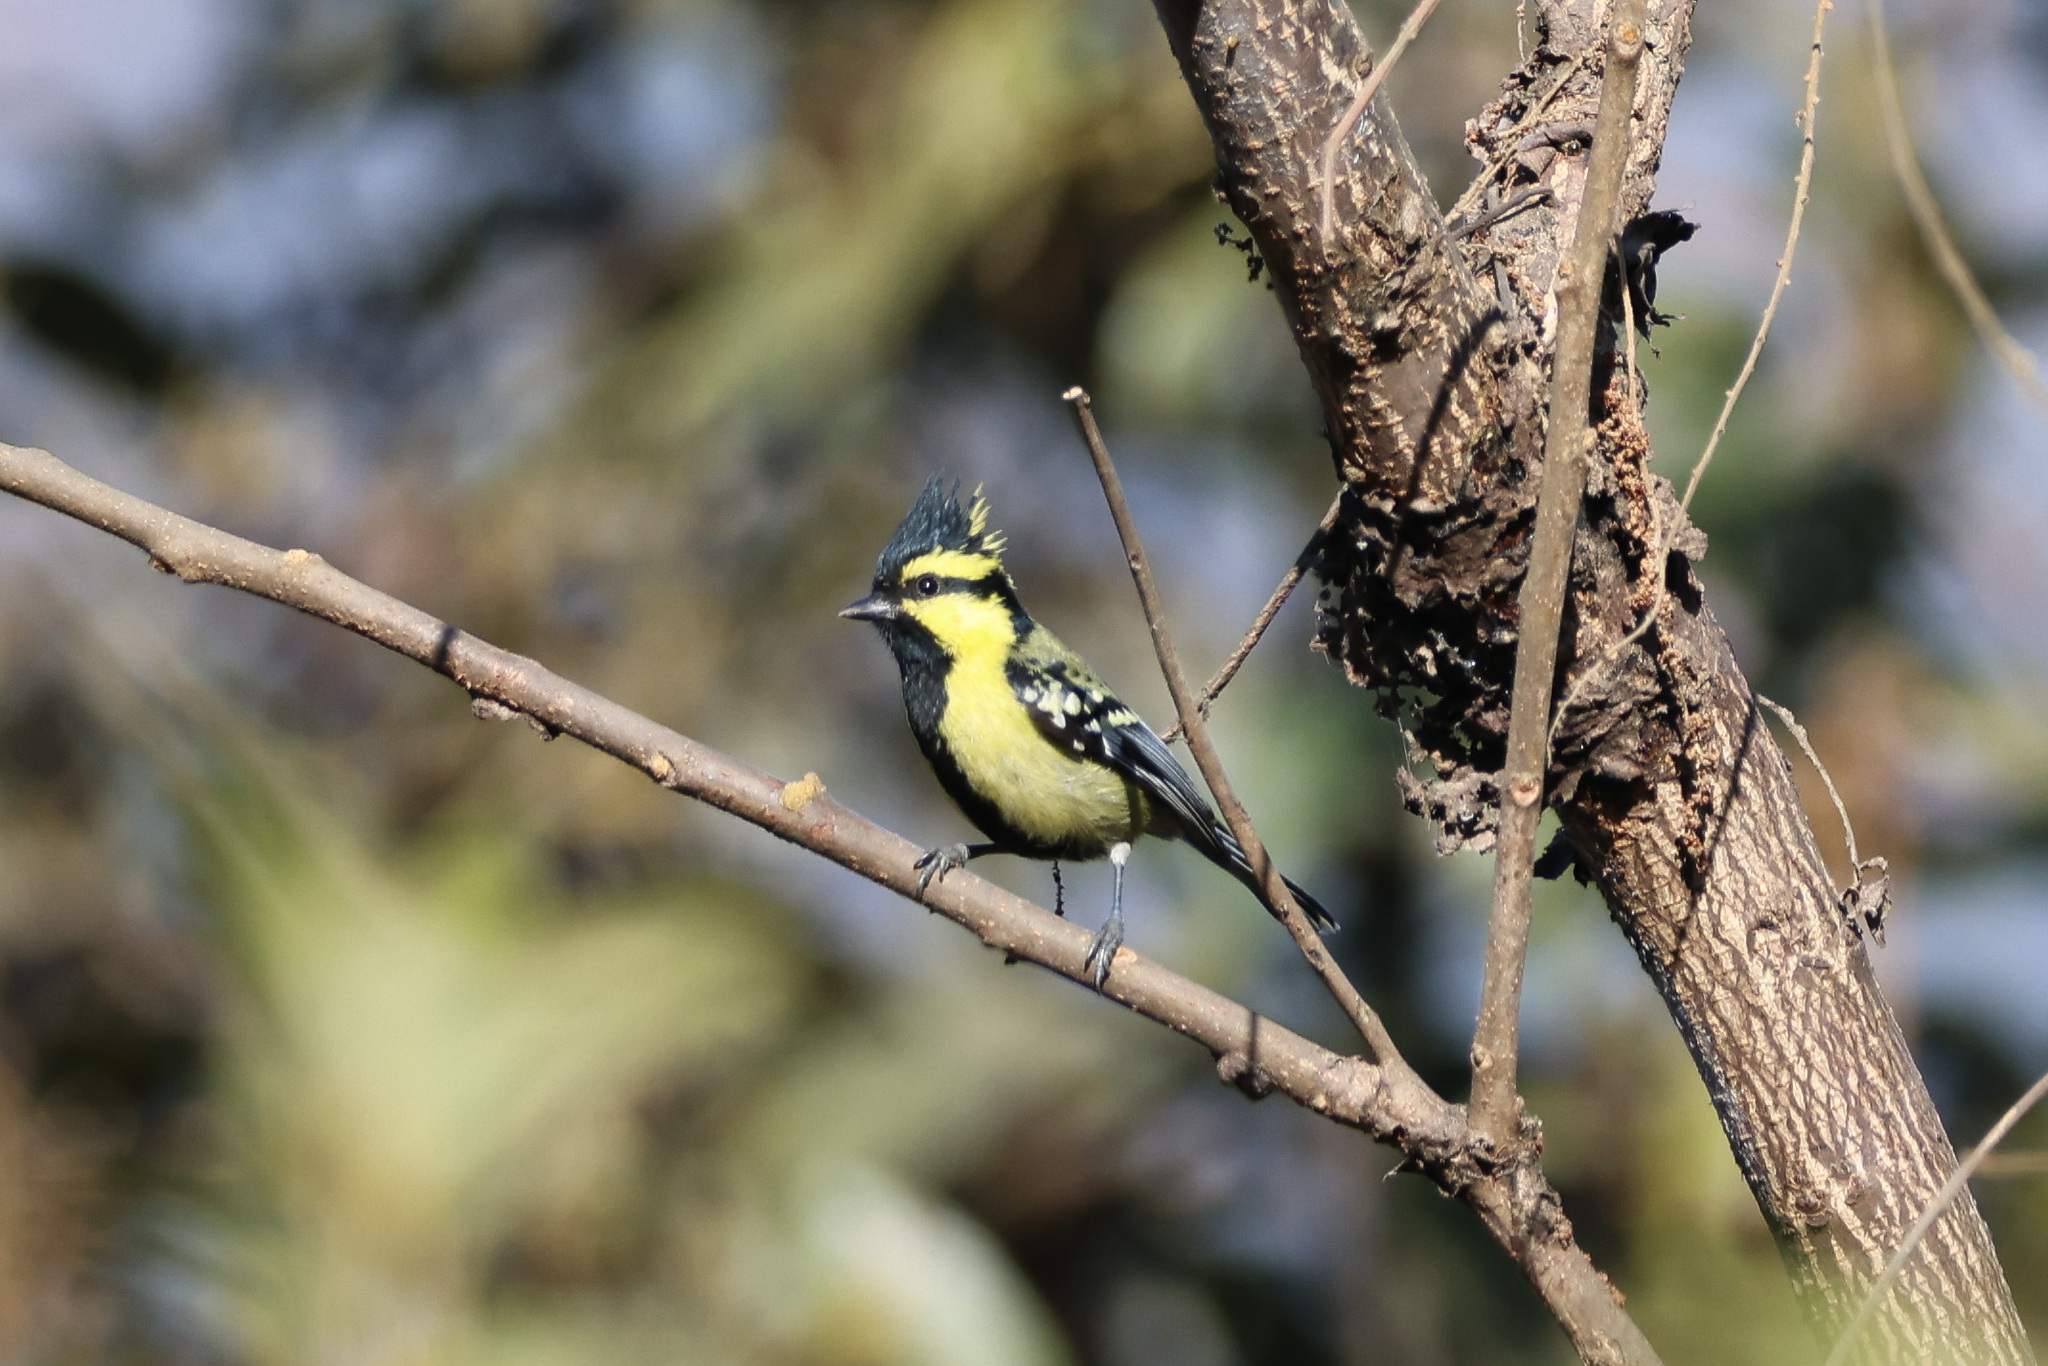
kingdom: Animalia
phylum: Chordata
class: Aves
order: Passeriformes
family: Paridae
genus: Parus
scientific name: Parus xanthogenys
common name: Black-lored tit
